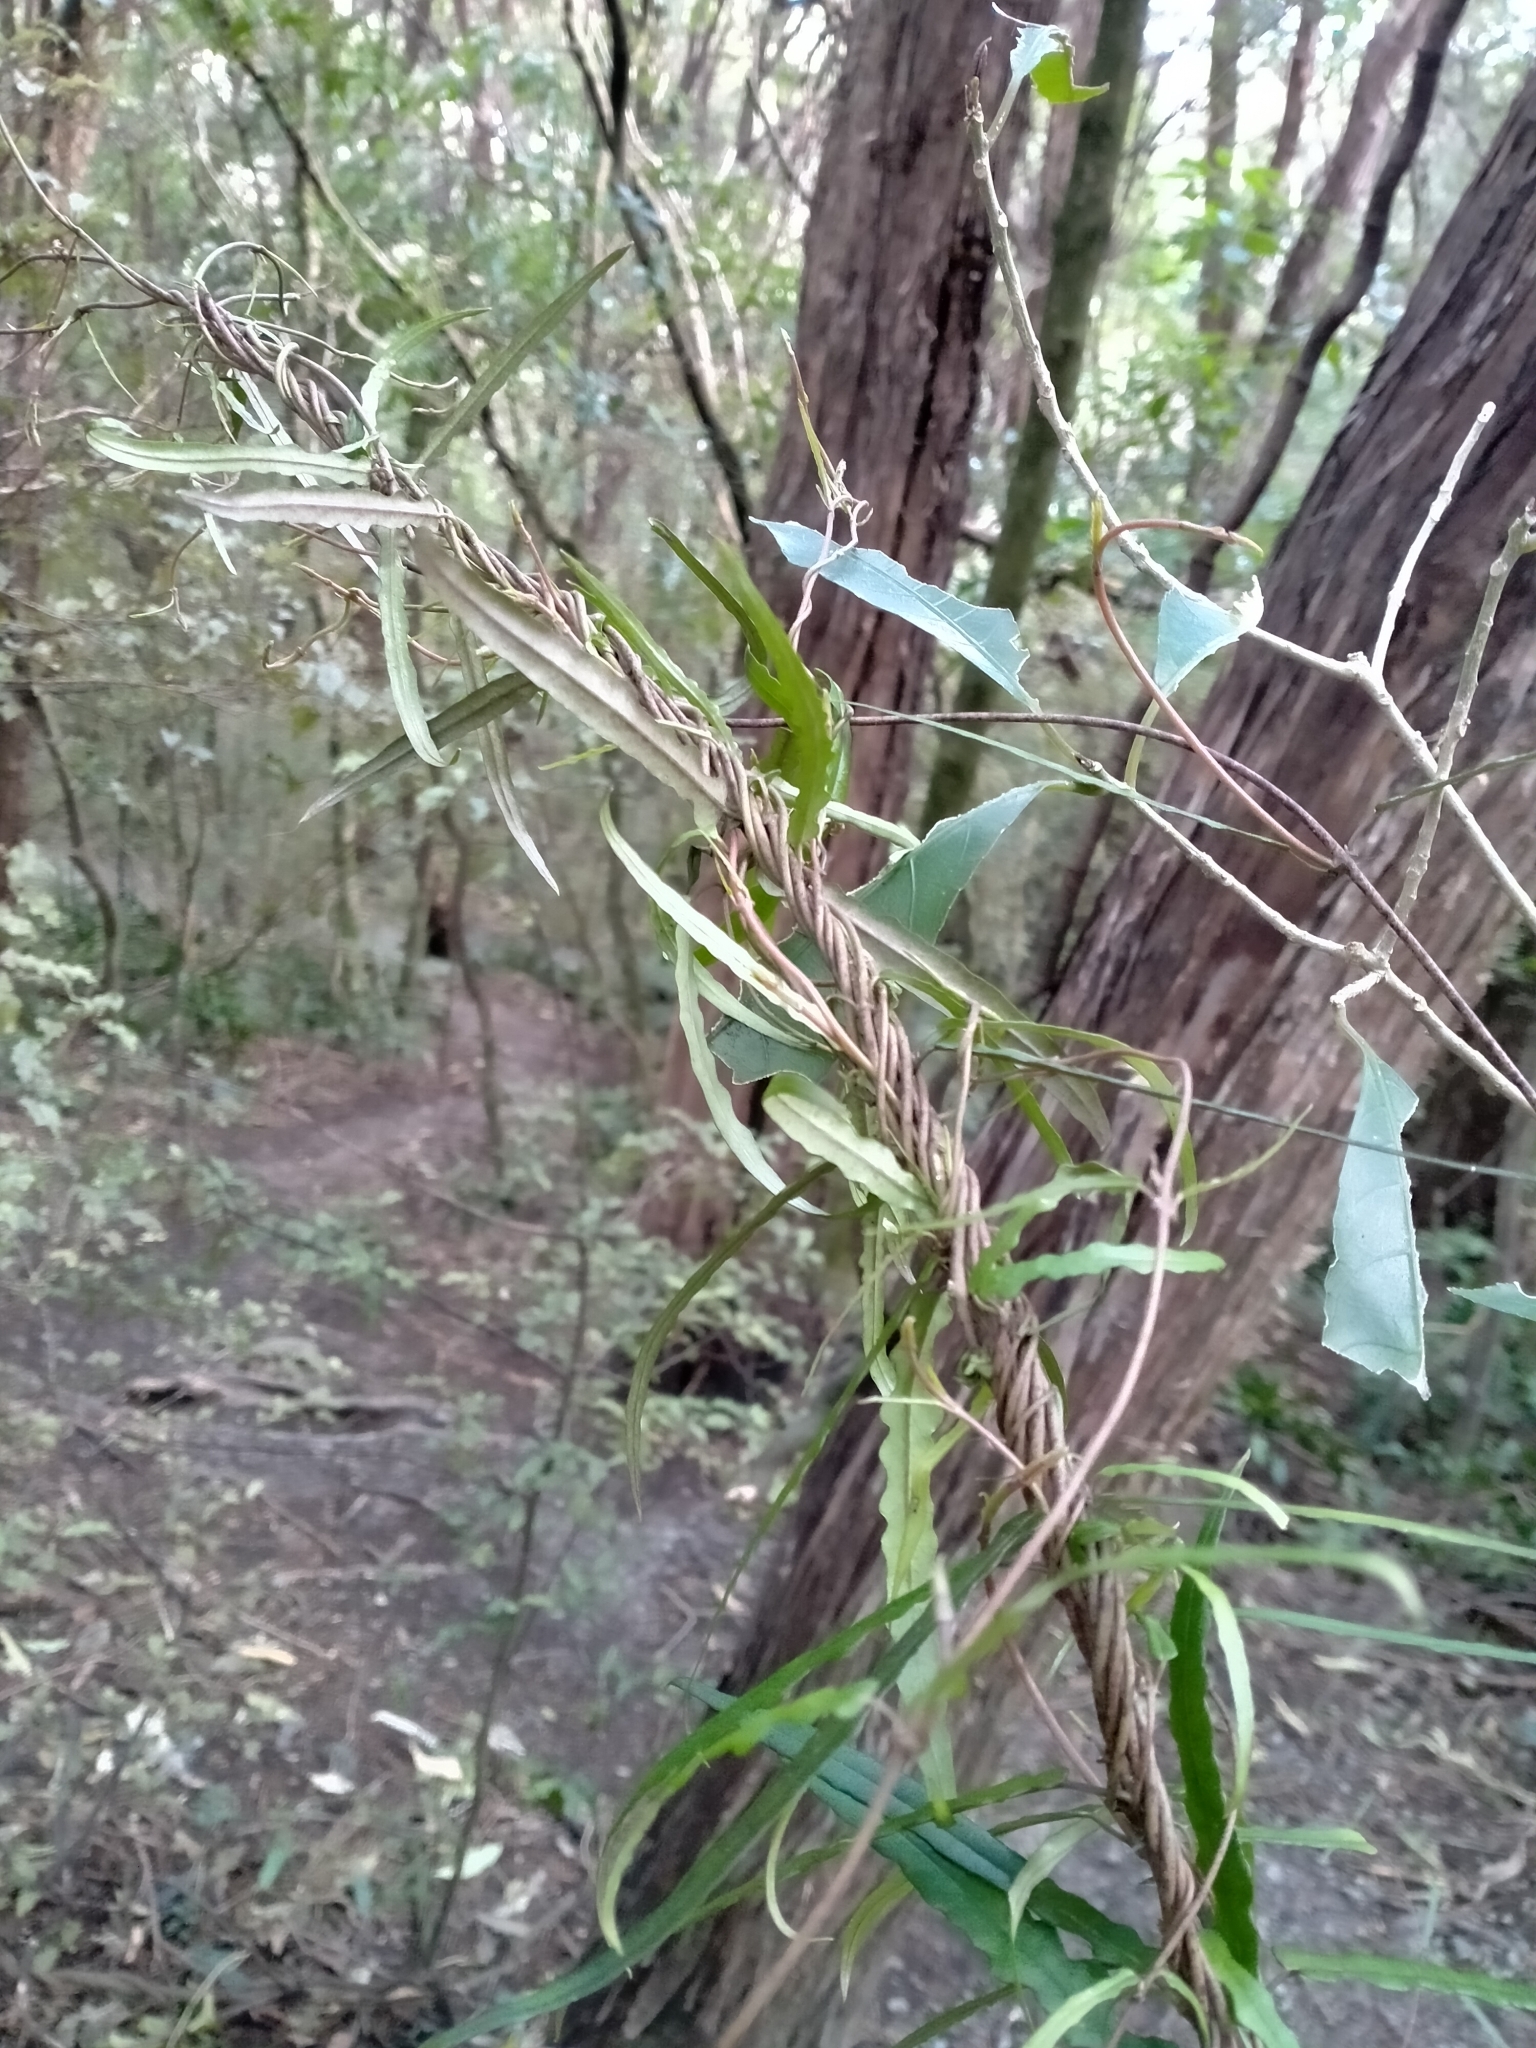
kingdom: Plantae
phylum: Tracheophyta
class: Magnoliopsida
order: Gentianales
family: Apocynaceae
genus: Parsonsia
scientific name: Parsonsia heterophylla
